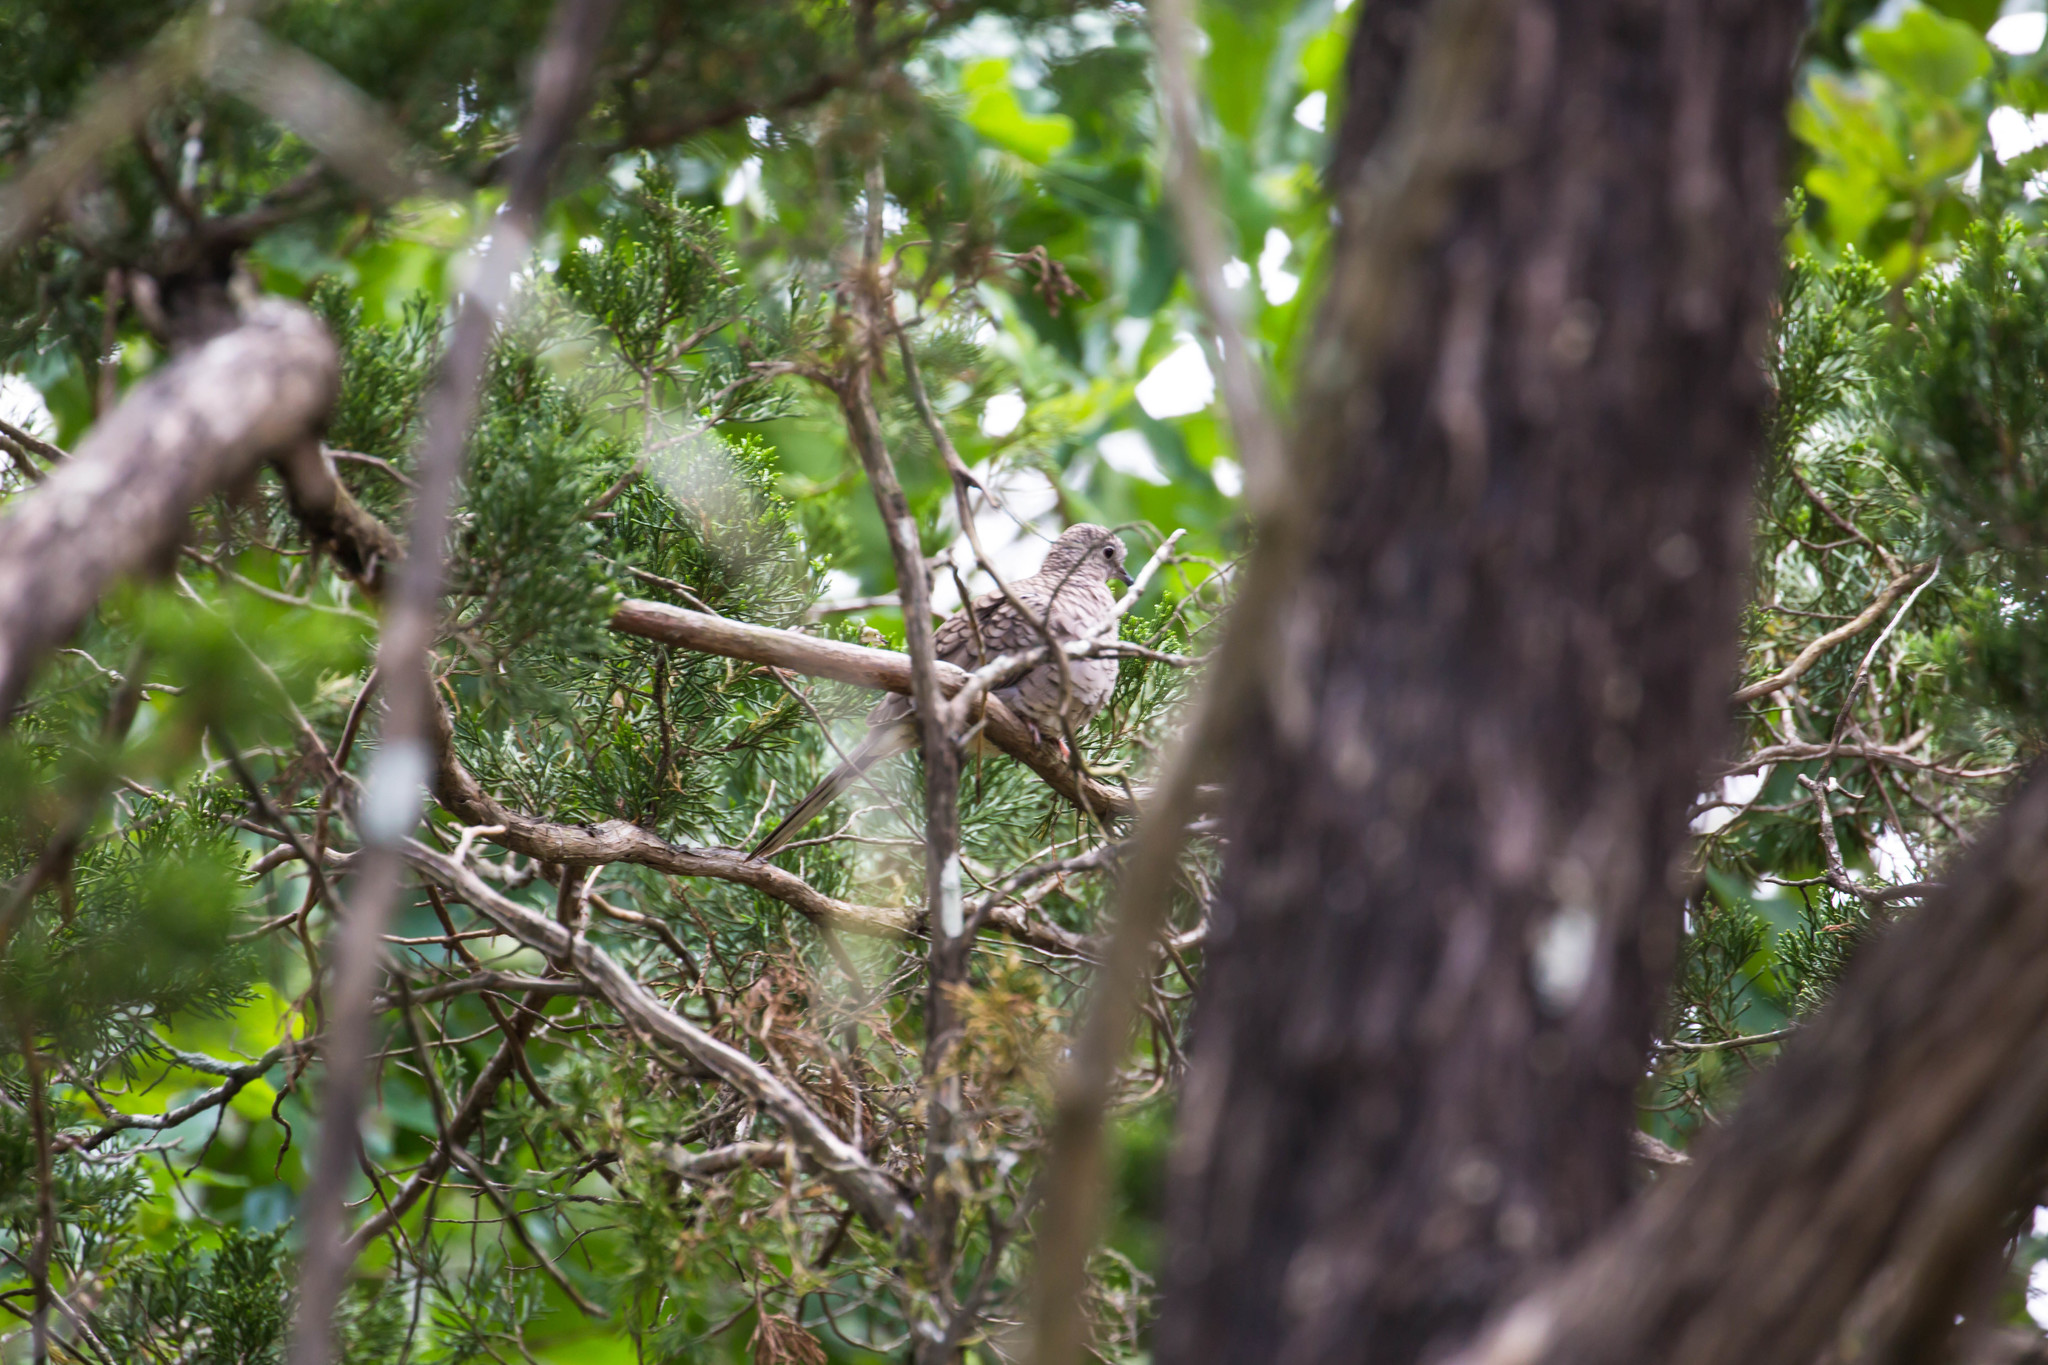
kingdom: Animalia
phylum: Chordata
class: Aves
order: Columbiformes
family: Columbidae
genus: Columbina
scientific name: Columbina inca
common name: Inca dove
